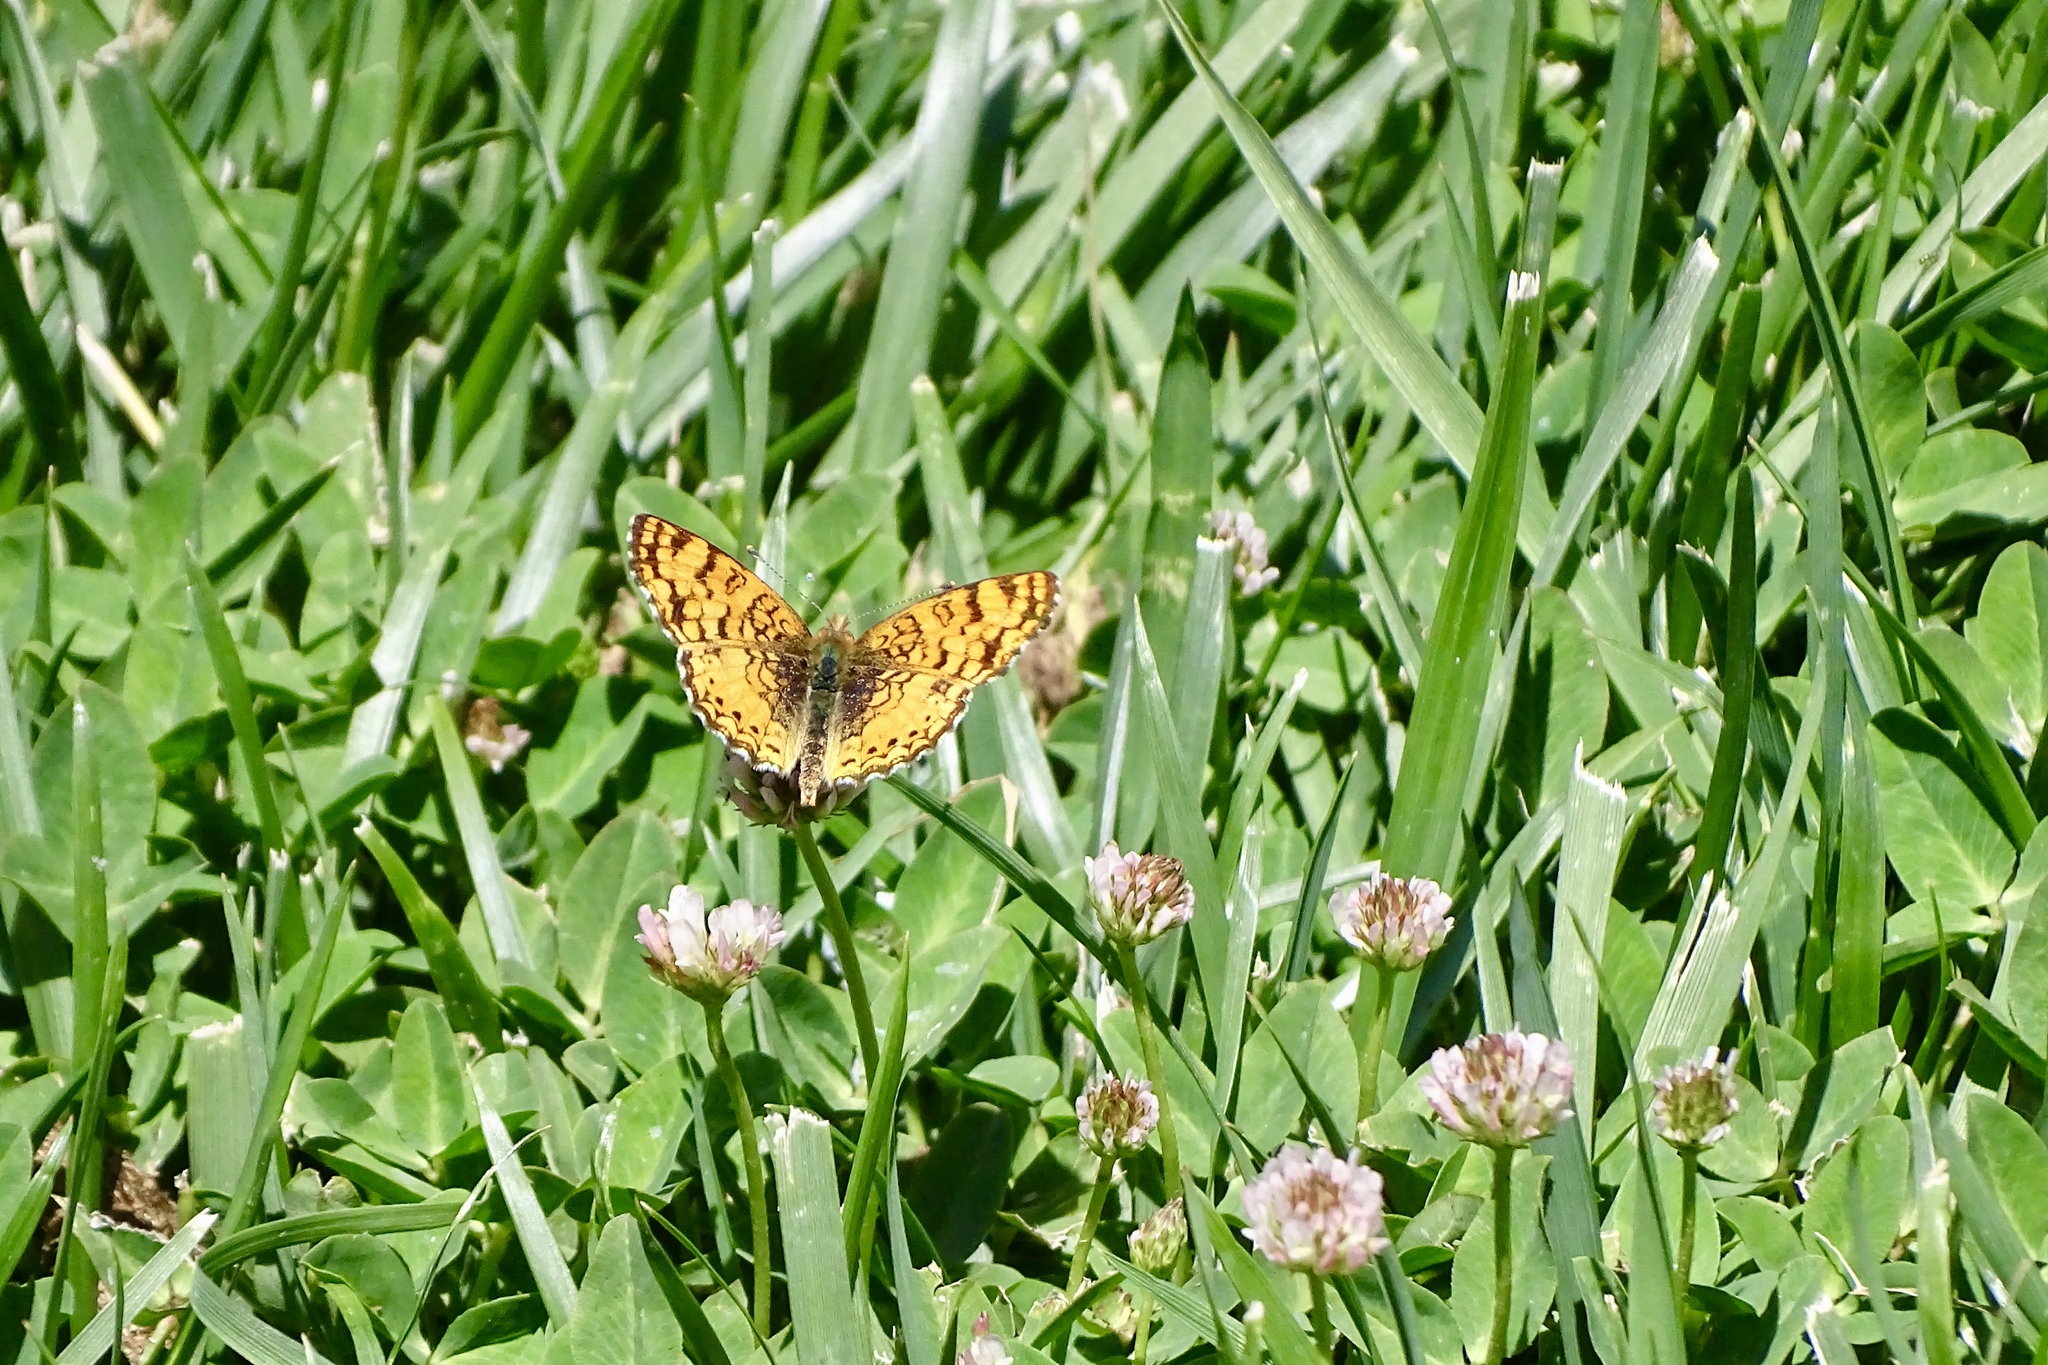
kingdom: Animalia
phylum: Arthropoda
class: Insecta
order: Lepidoptera
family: Nymphalidae
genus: Eresia
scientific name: Eresia aveyrona
